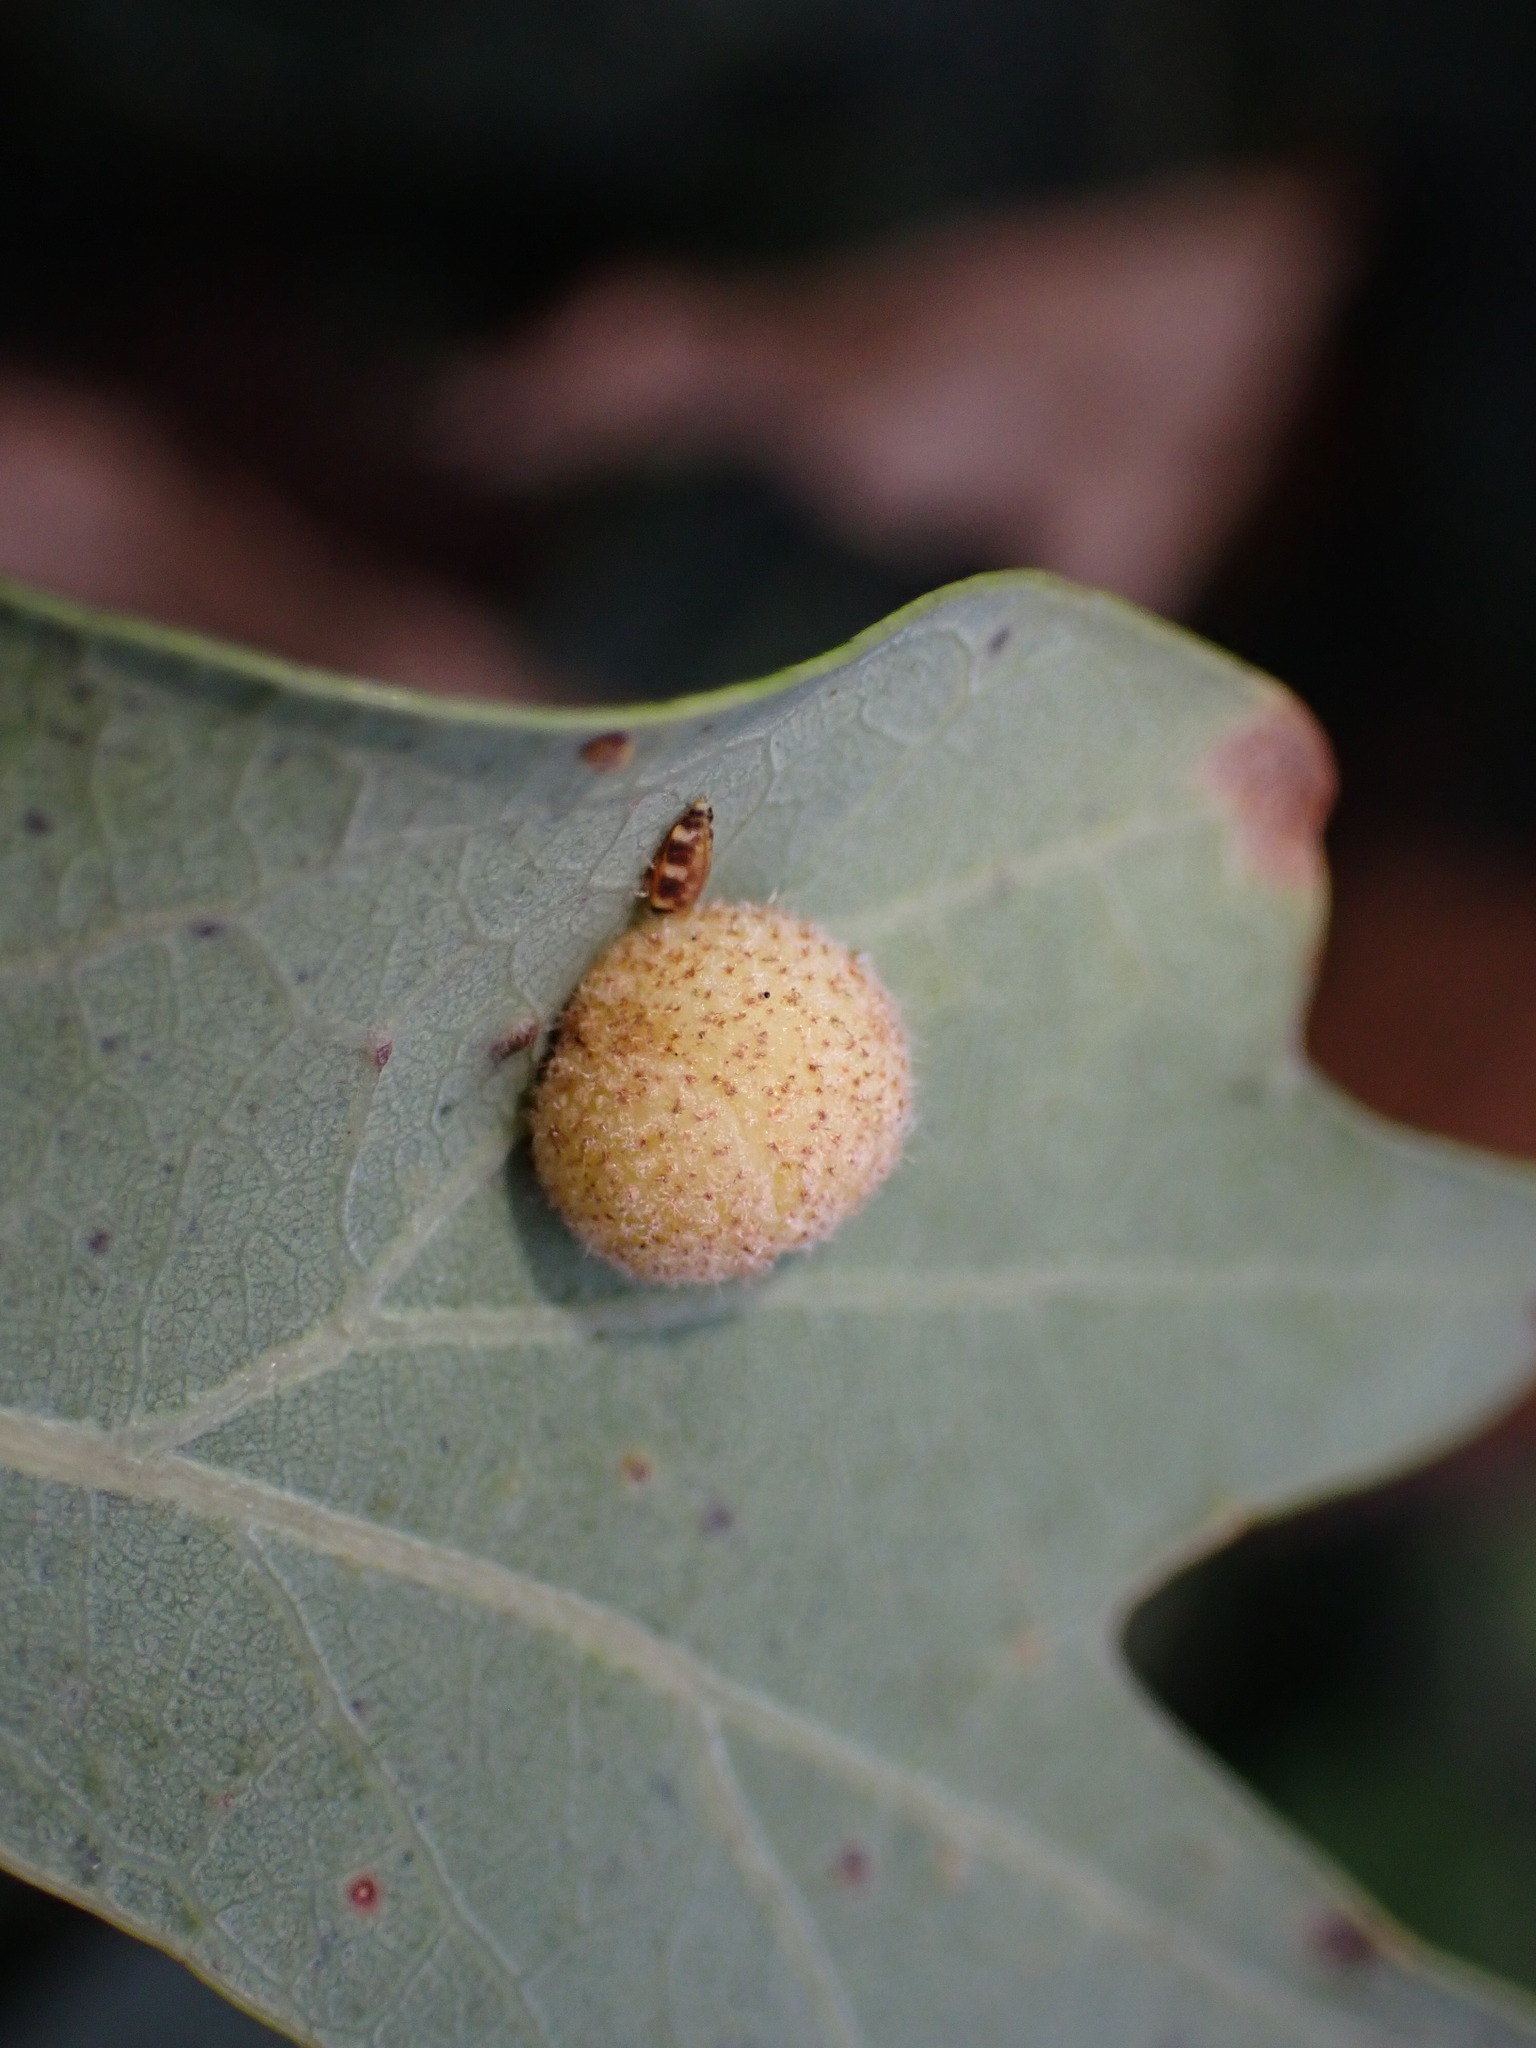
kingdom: Animalia
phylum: Arthropoda
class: Insecta
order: Hymenoptera
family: Cynipidae
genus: Philonix
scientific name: Philonix fulvicollis
